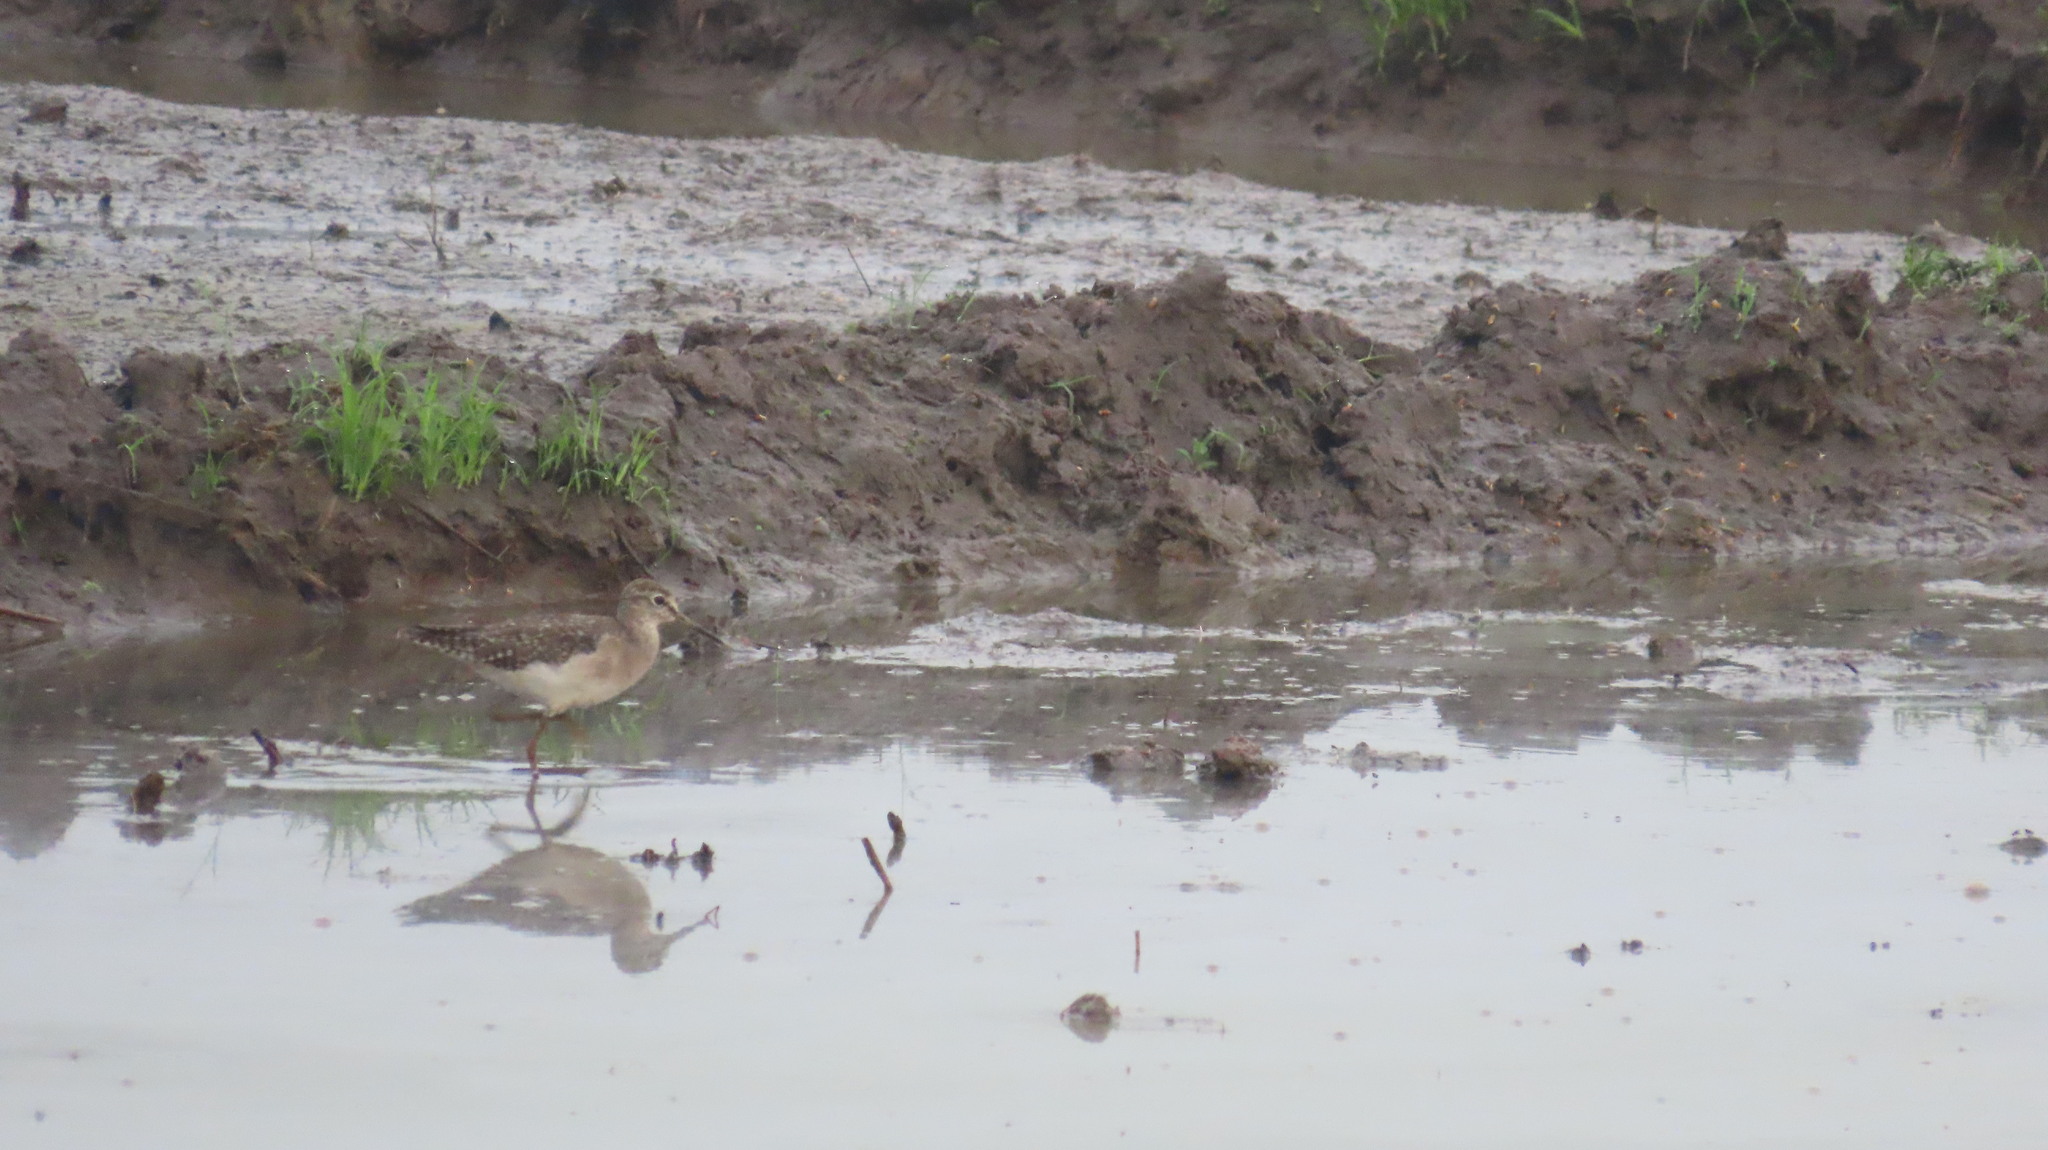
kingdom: Animalia
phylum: Chordata
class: Aves
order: Charadriiformes
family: Scolopacidae
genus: Tringa
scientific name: Tringa glareola
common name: Wood sandpiper
